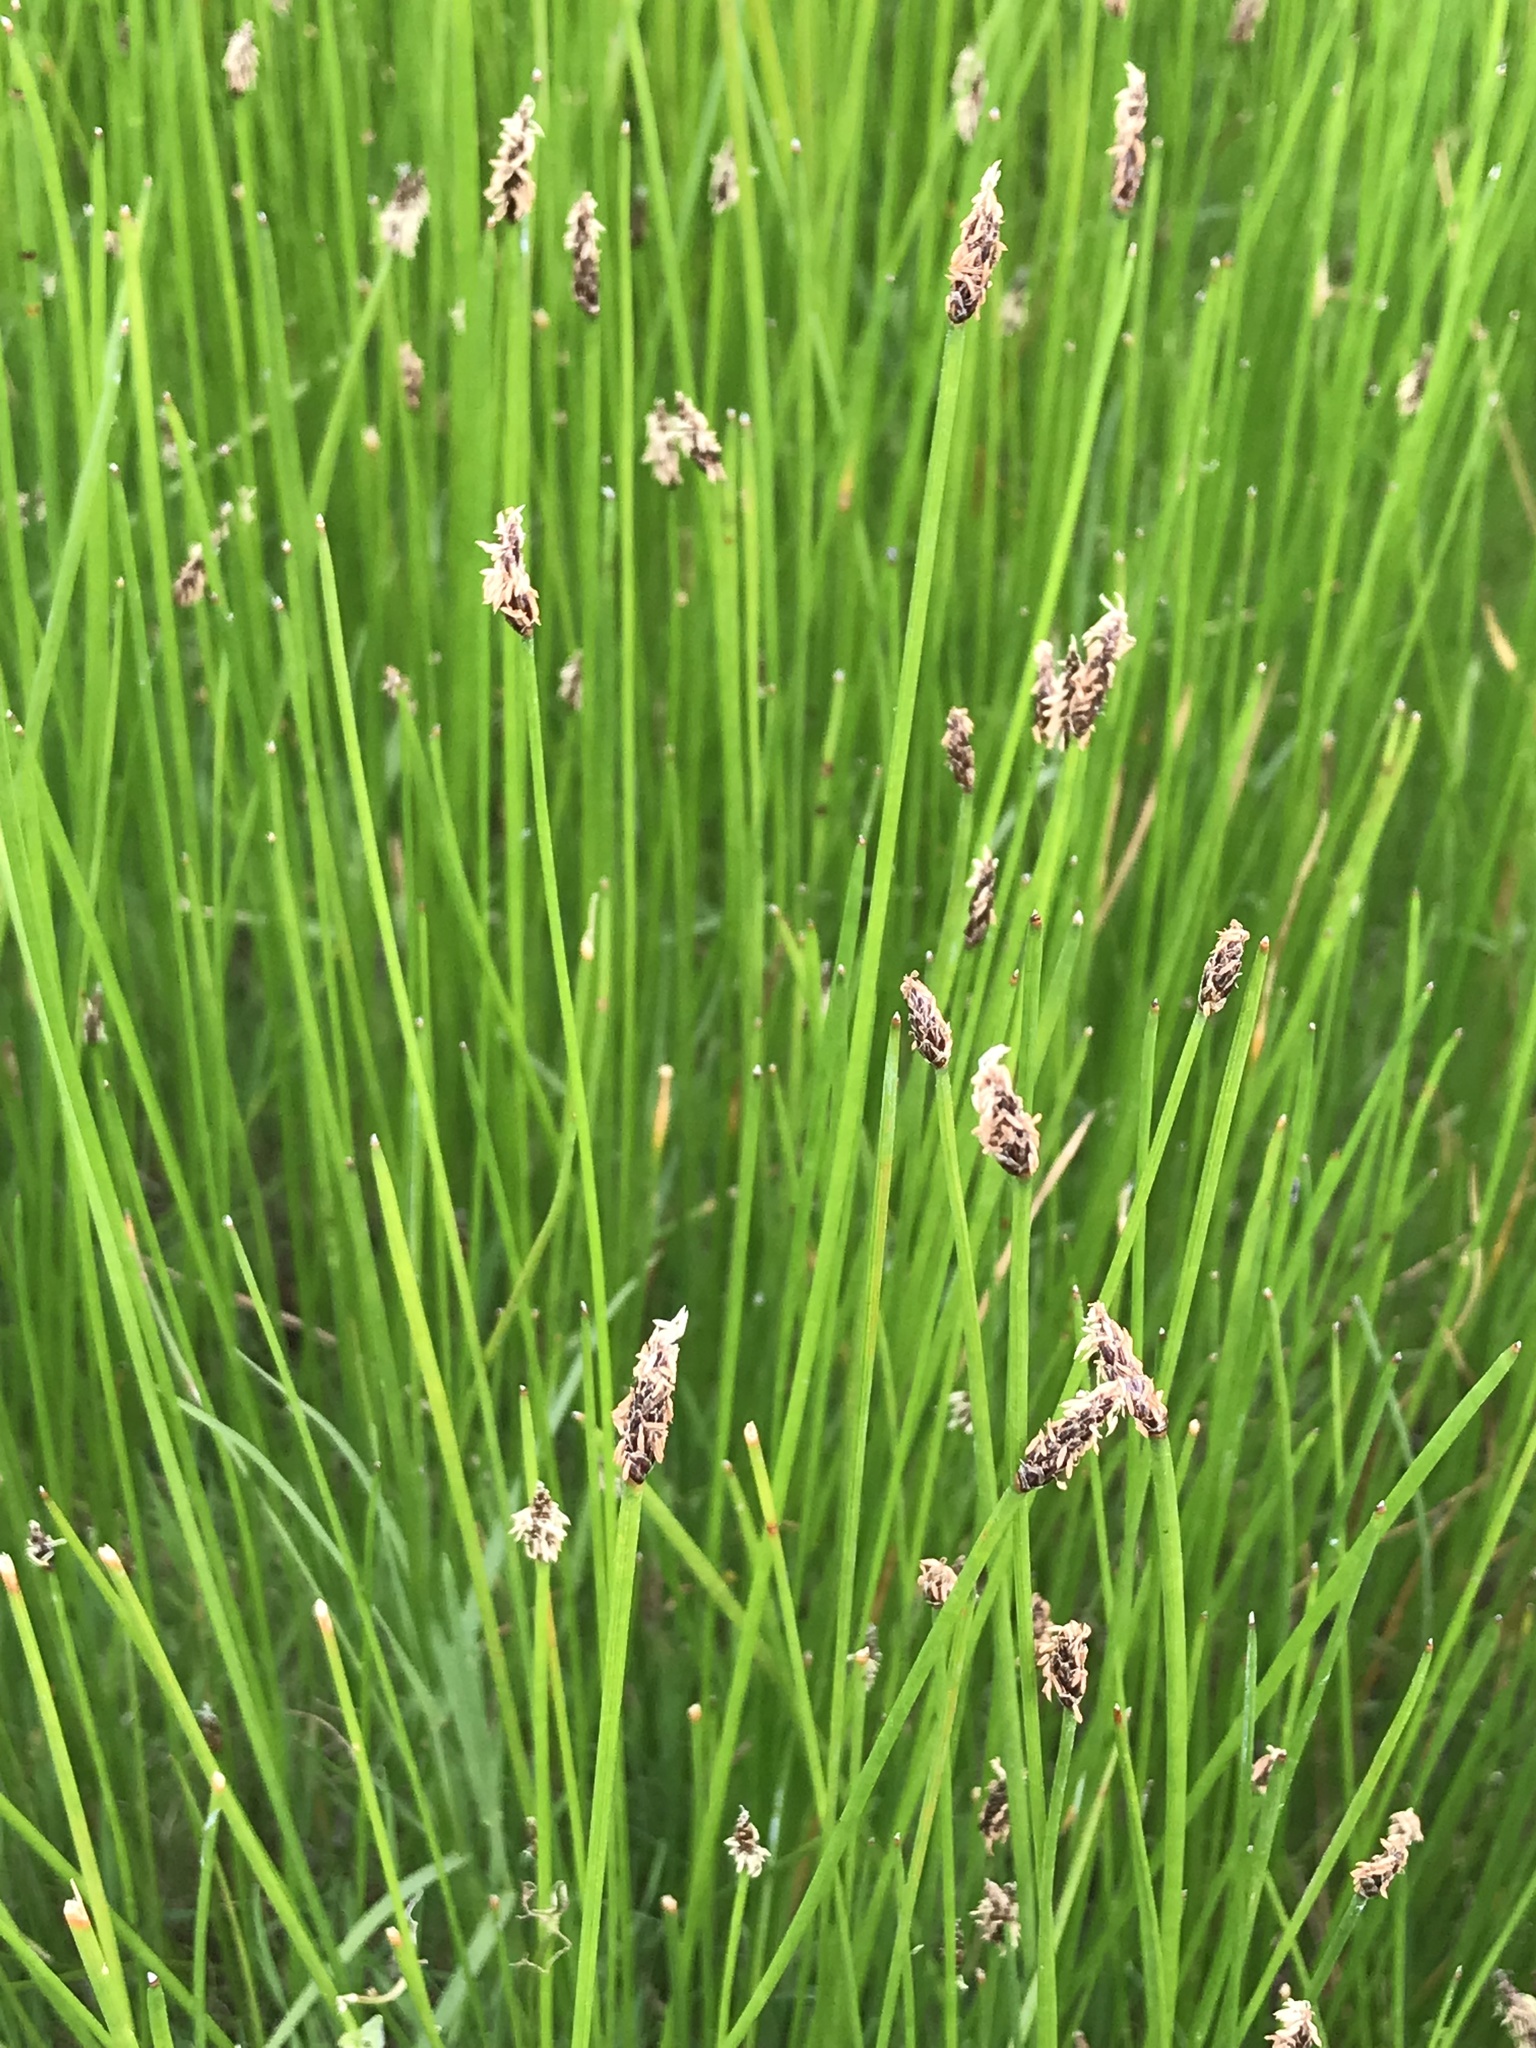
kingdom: Plantae
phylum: Tracheophyta
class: Liliopsida
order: Poales
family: Cyperaceae
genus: Eleocharis
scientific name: Eleocharis macrostachya
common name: Pale spikerush
